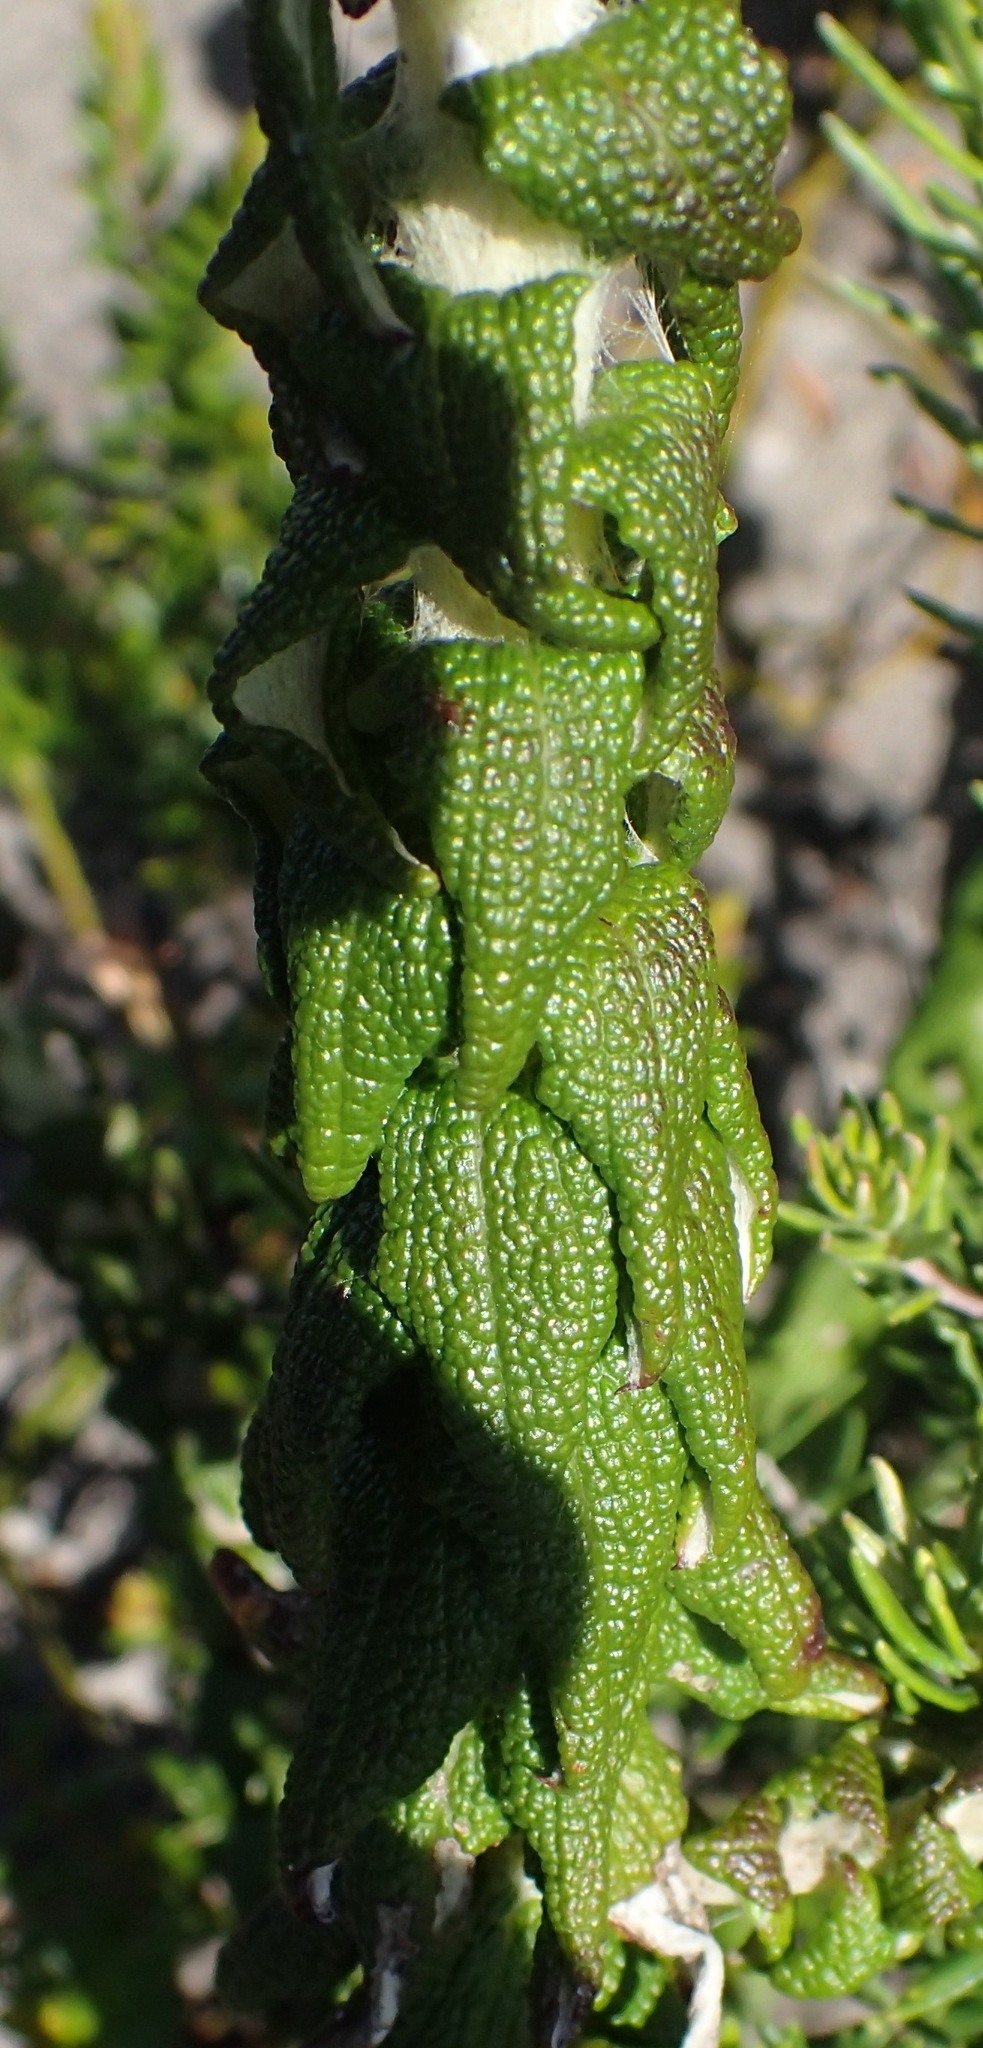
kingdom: Plantae
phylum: Tracheophyta
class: Magnoliopsida
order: Asterales
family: Asteraceae
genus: Helichrysum
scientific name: Helichrysum felinum
